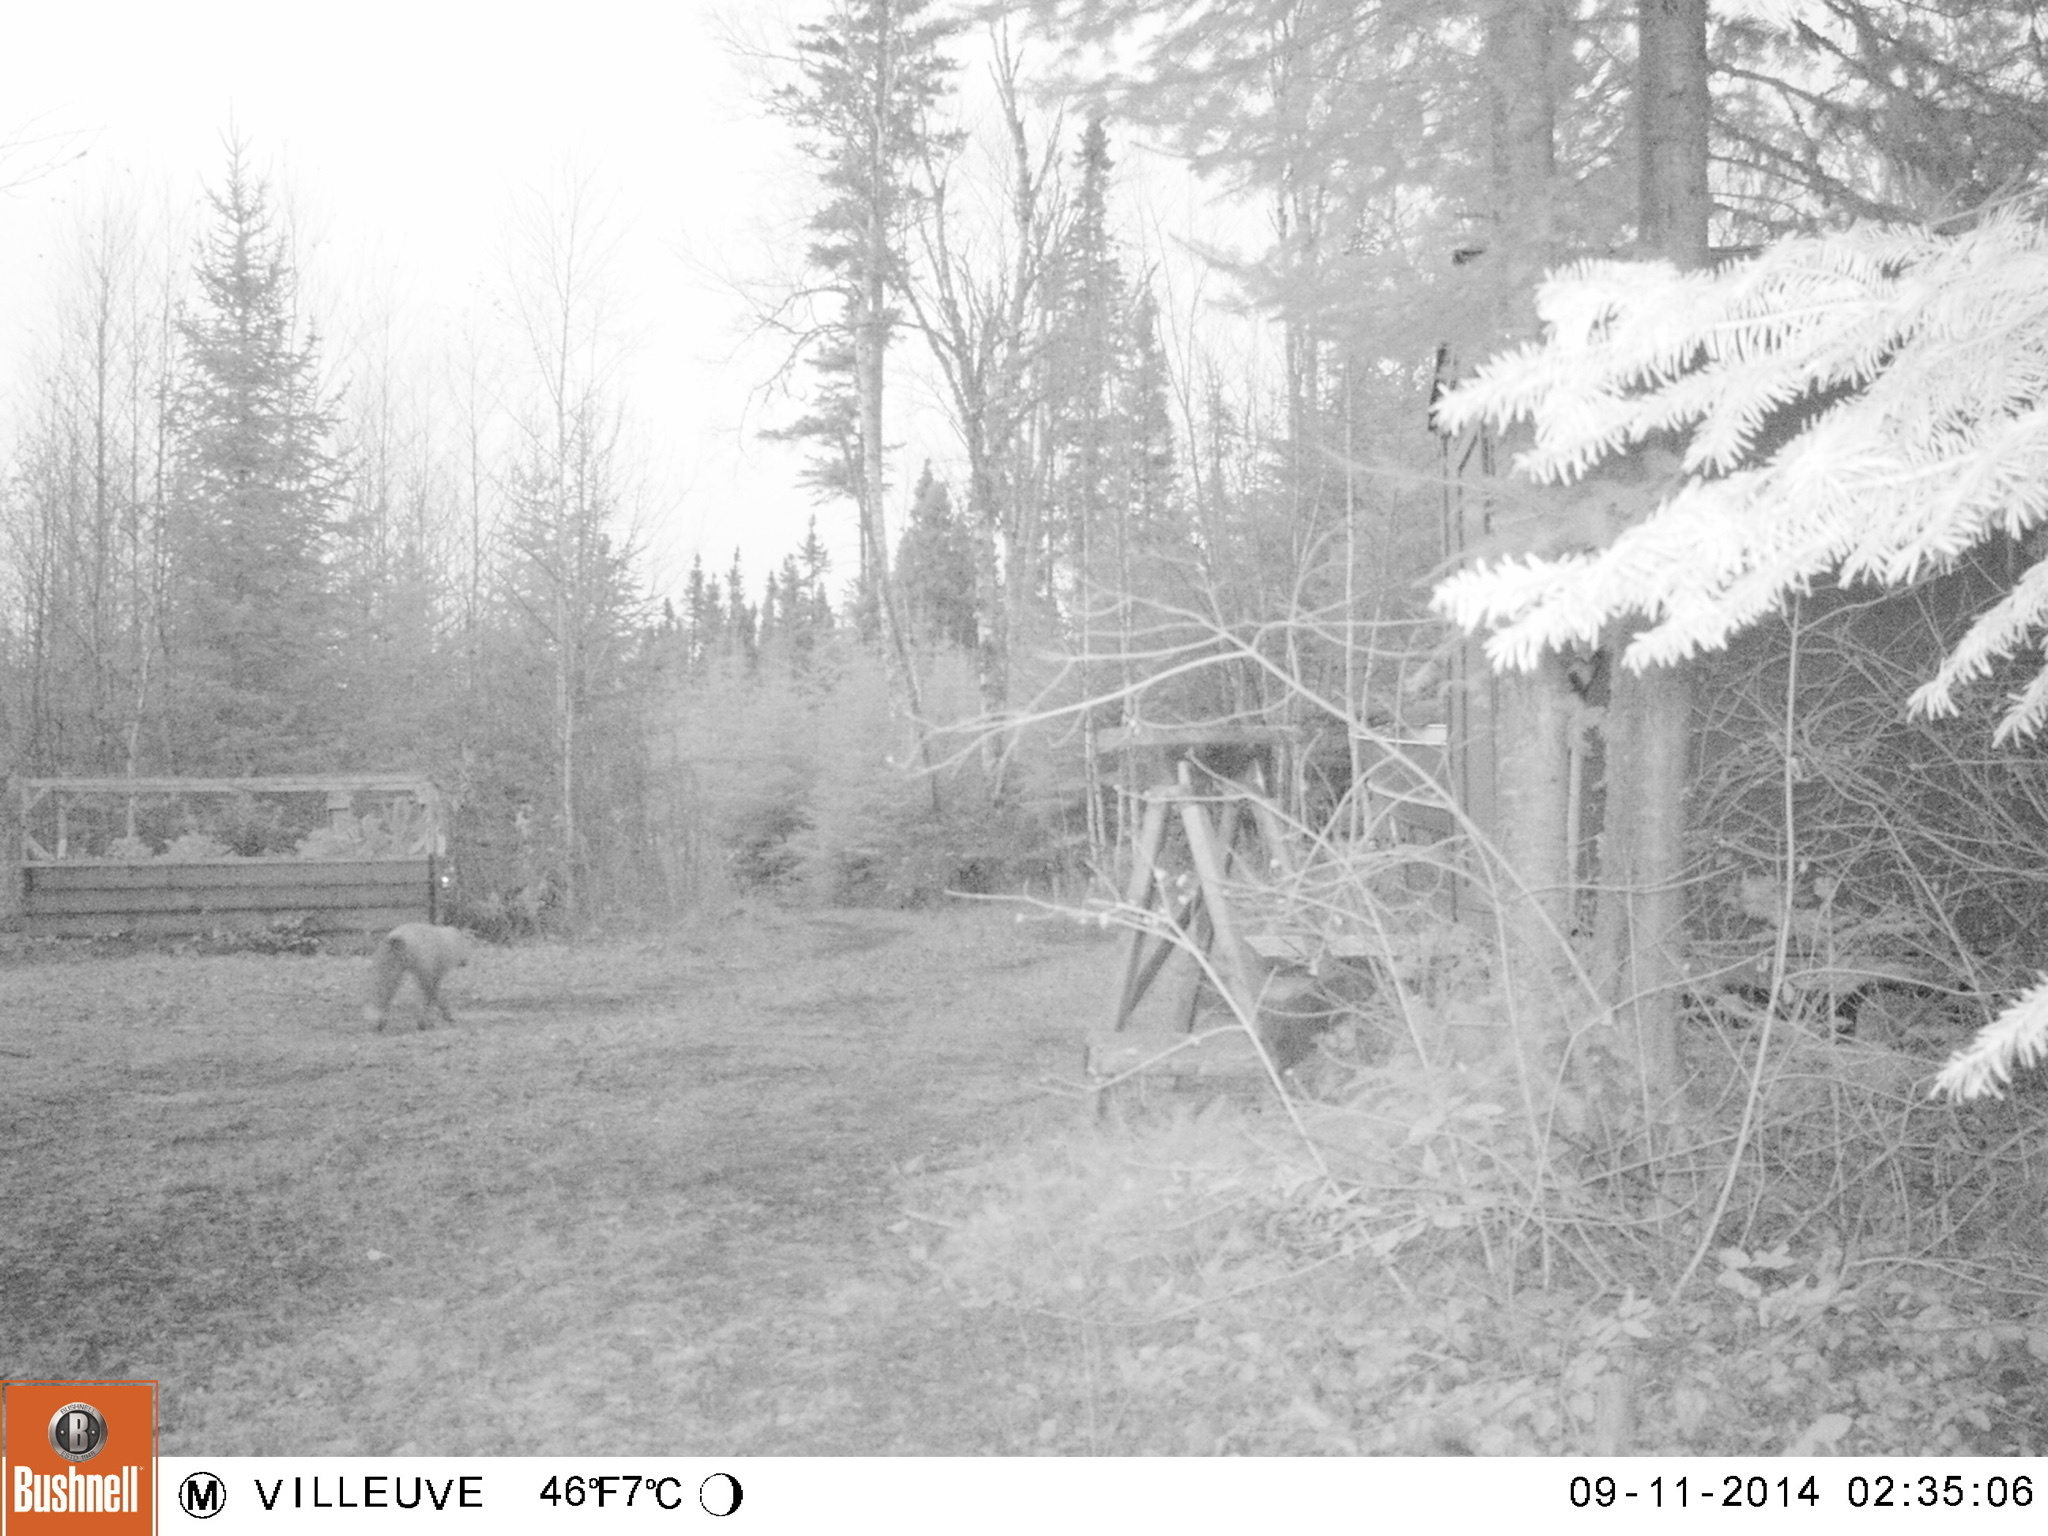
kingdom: Animalia
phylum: Chordata
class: Mammalia
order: Carnivora
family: Felidae
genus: Lynx
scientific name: Lynx canadensis
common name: Canadian lynx
